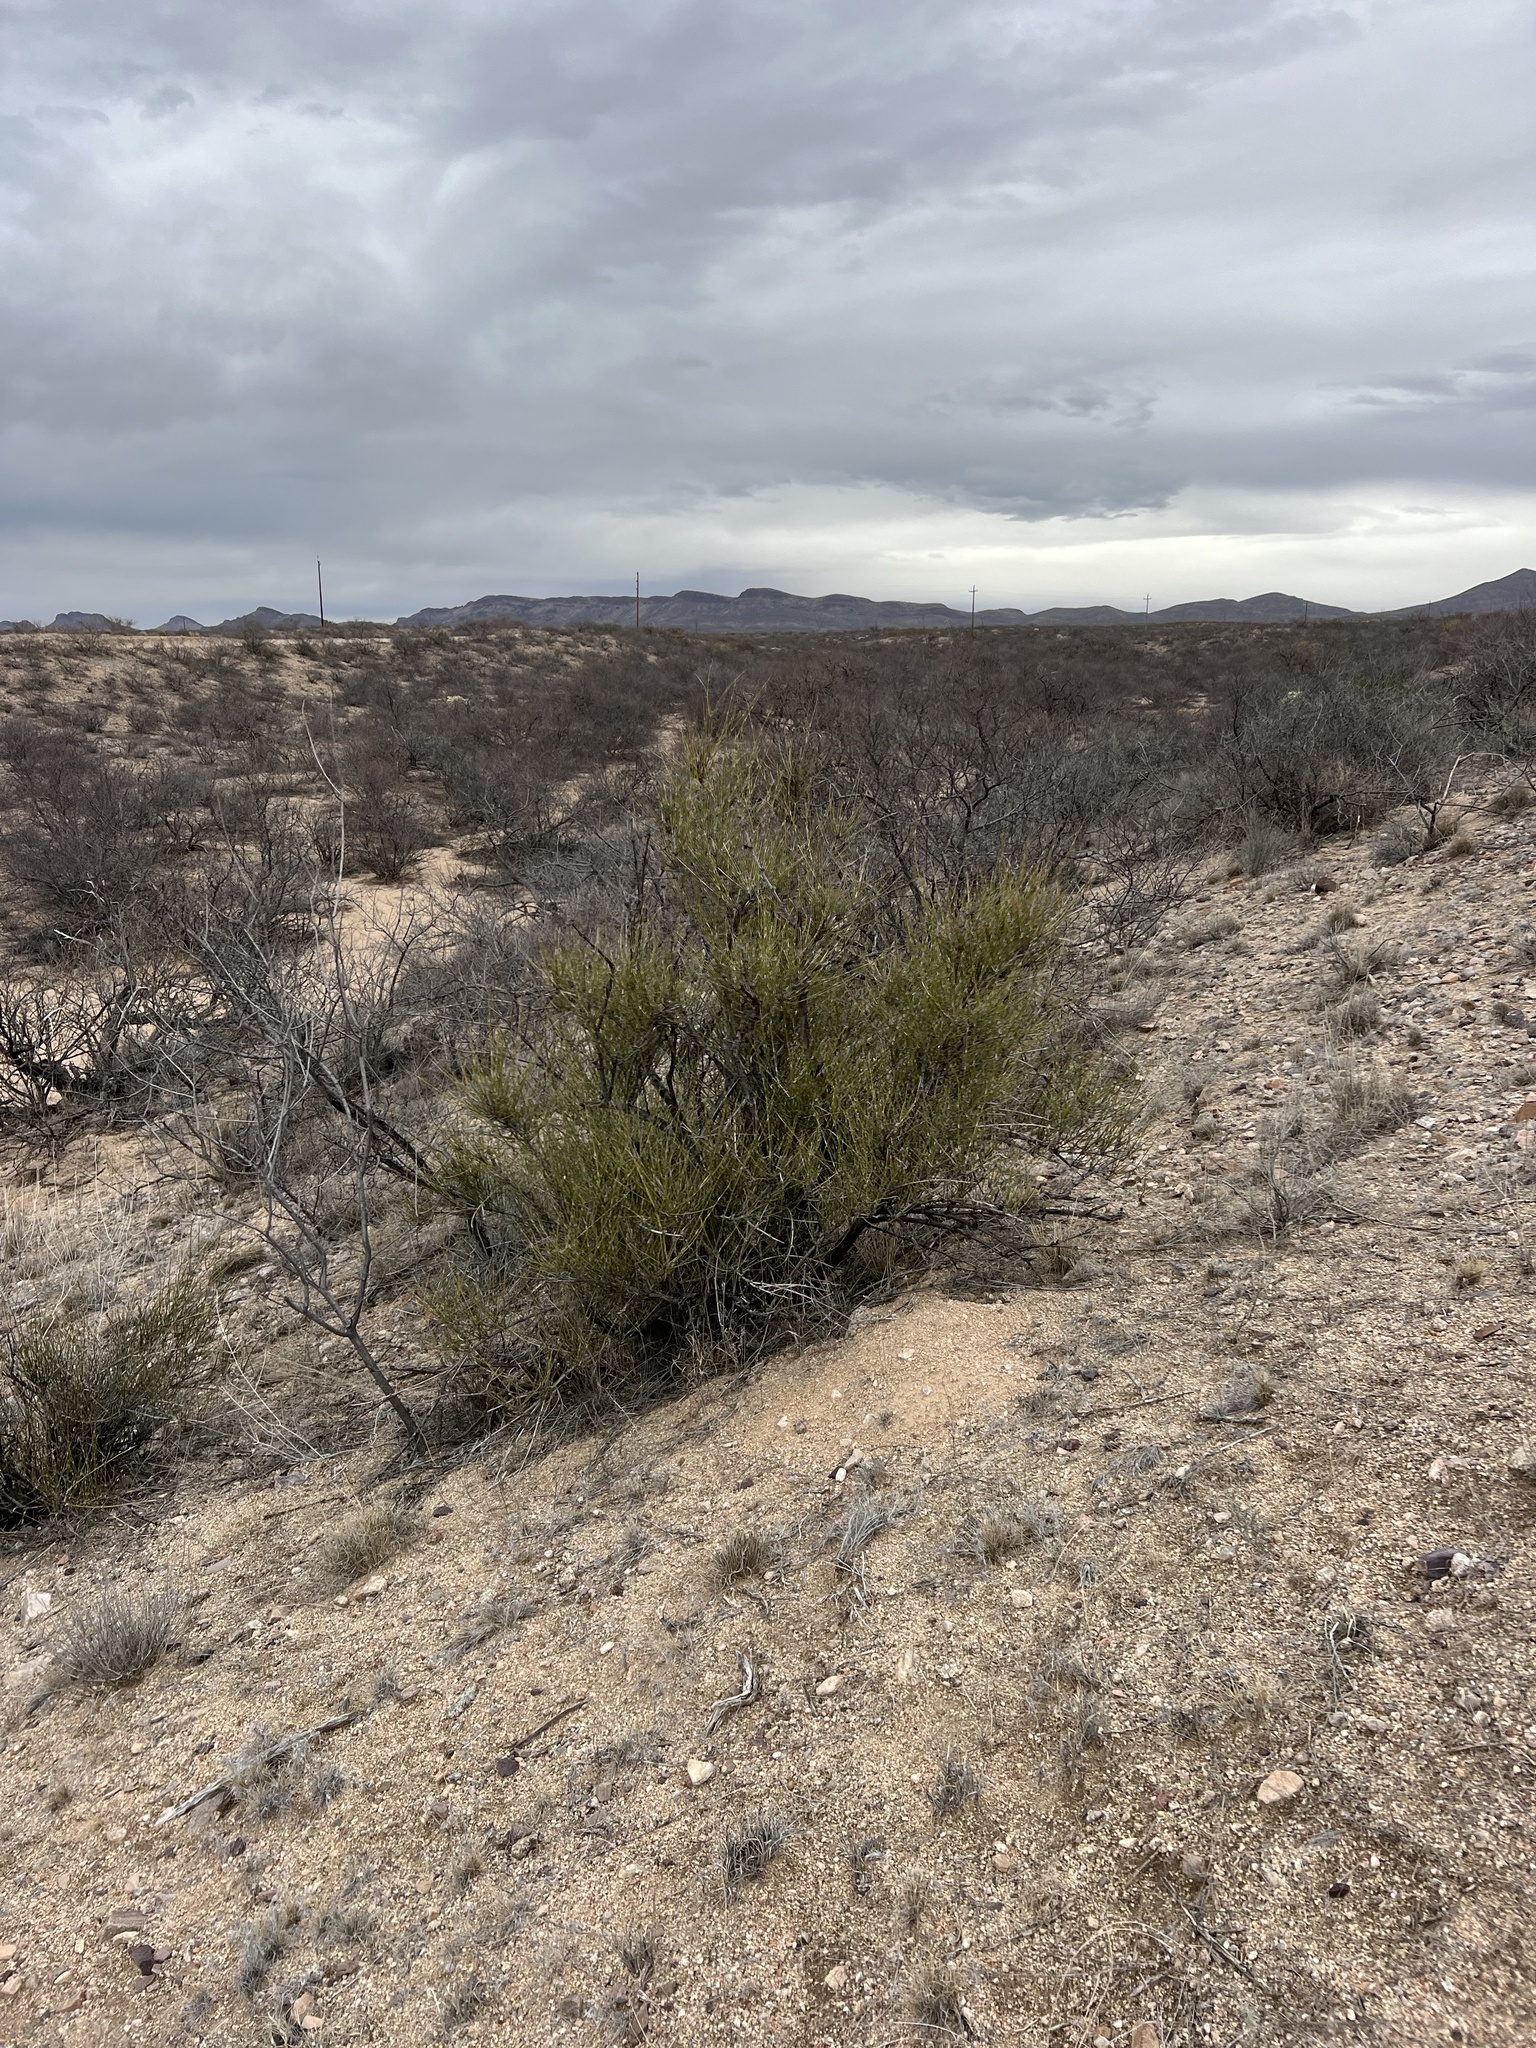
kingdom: Plantae
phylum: Tracheophyta
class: Gnetopsida
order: Ephedrales
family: Ephedraceae
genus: Ephedra
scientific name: Ephedra trifurca
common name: Mexican-tea
